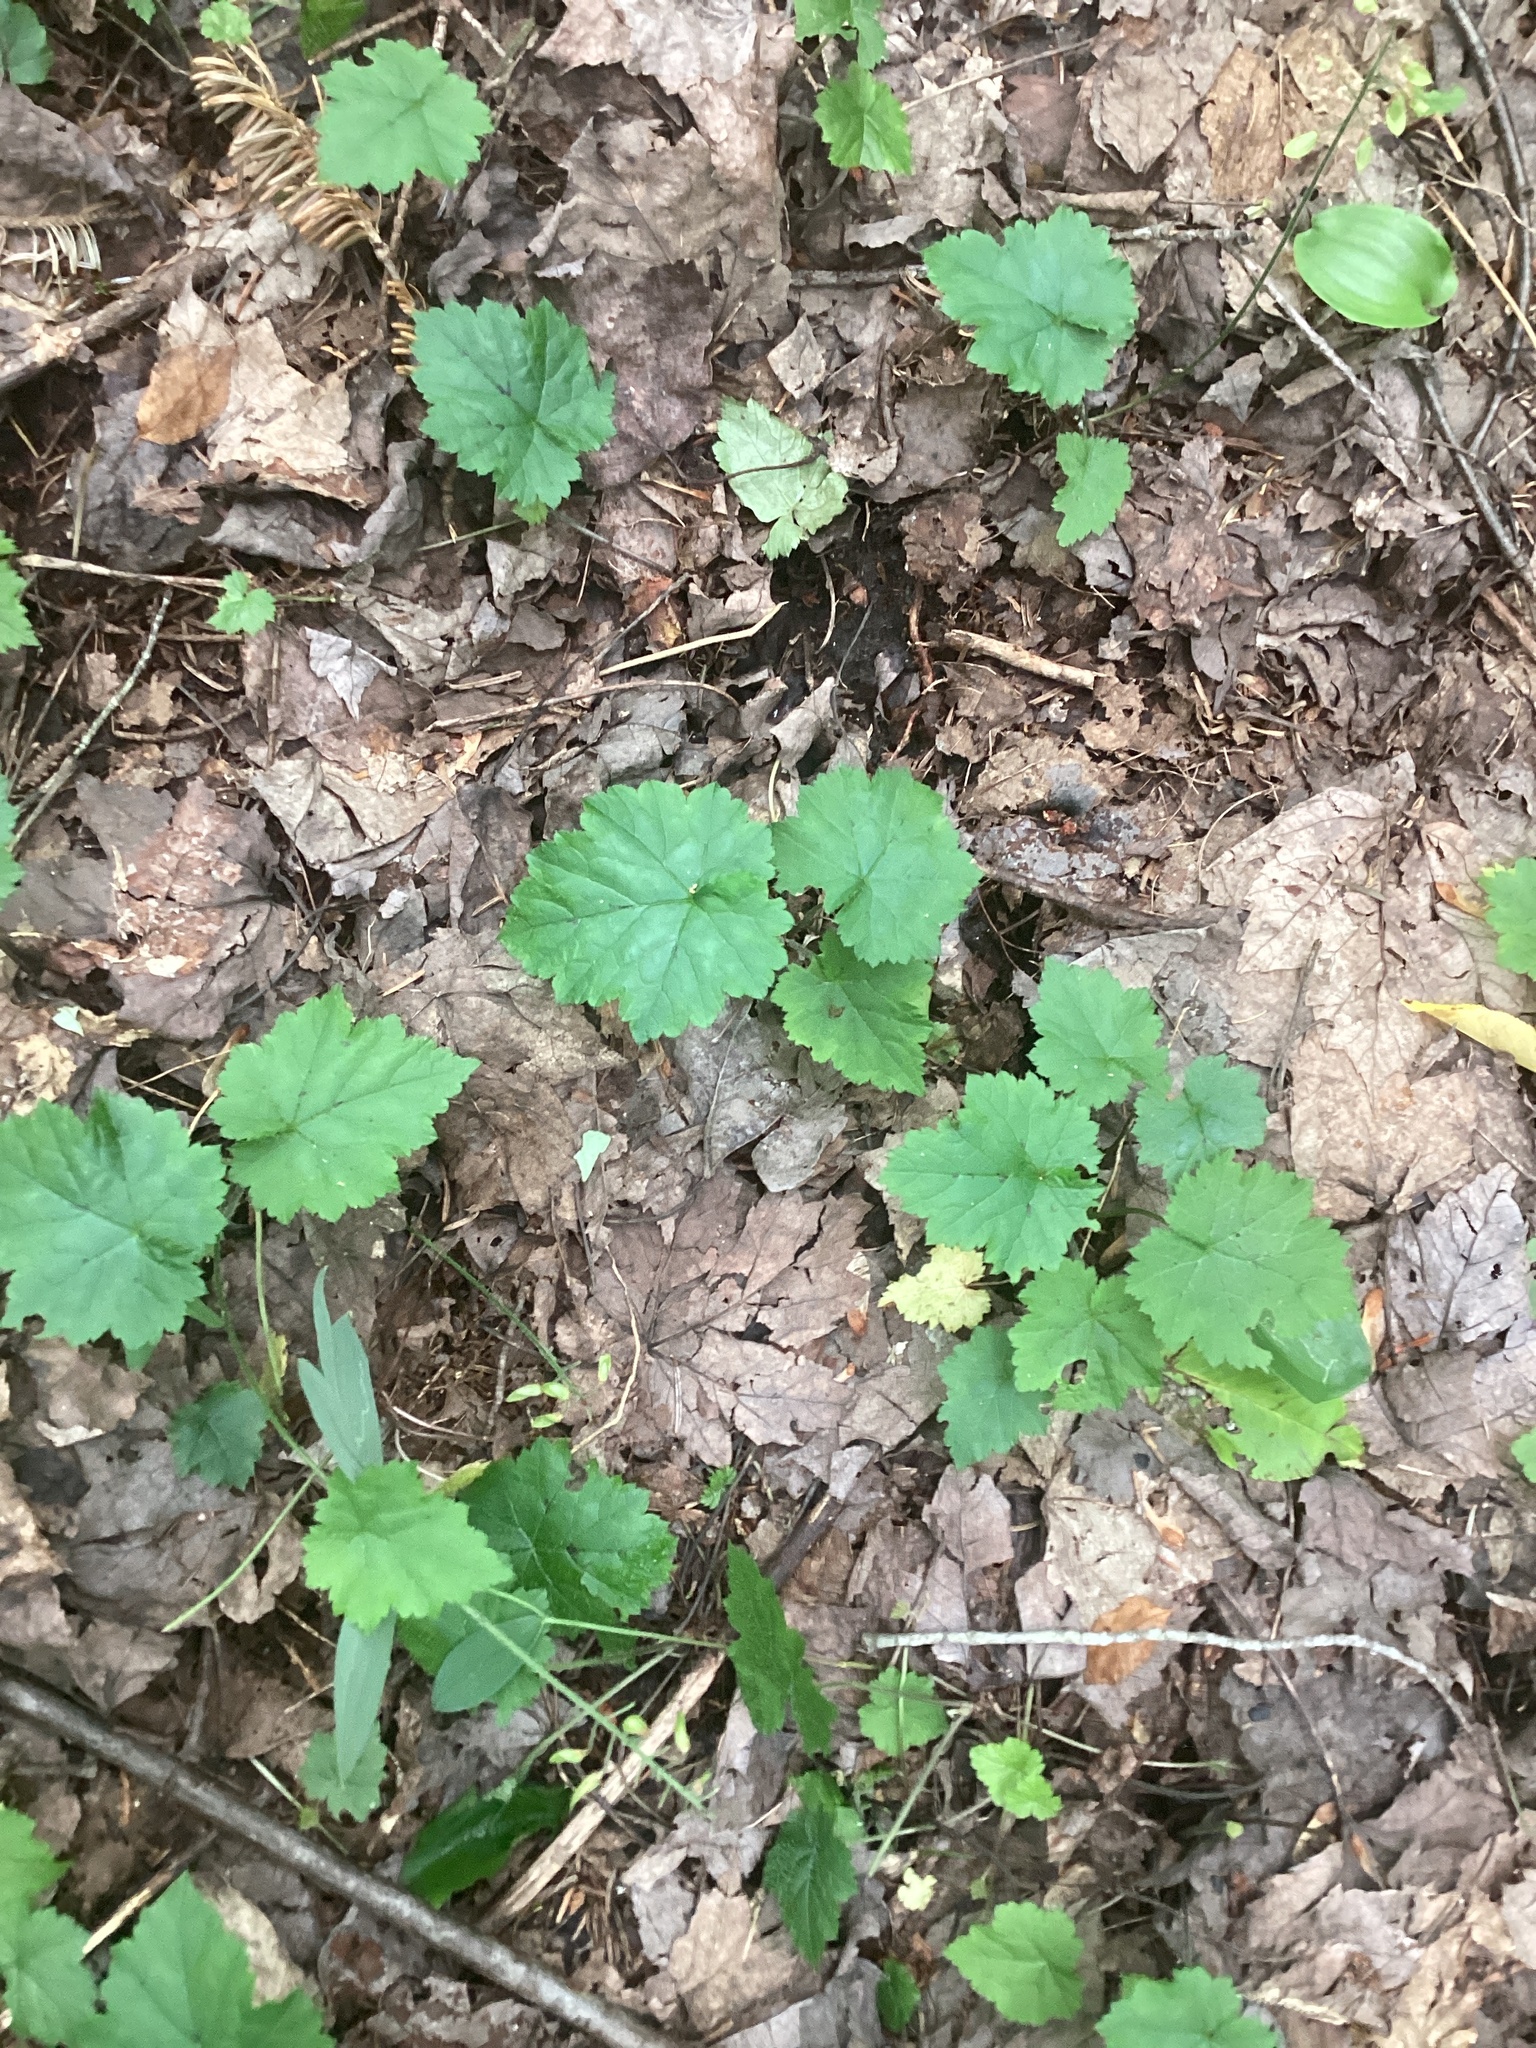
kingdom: Plantae
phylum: Tracheophyta
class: Magnoliopsida
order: Saxifragales
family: Saxifragaceae
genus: Tiarella
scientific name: Tiarella stolonifera
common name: Stoloniferous foamflower
